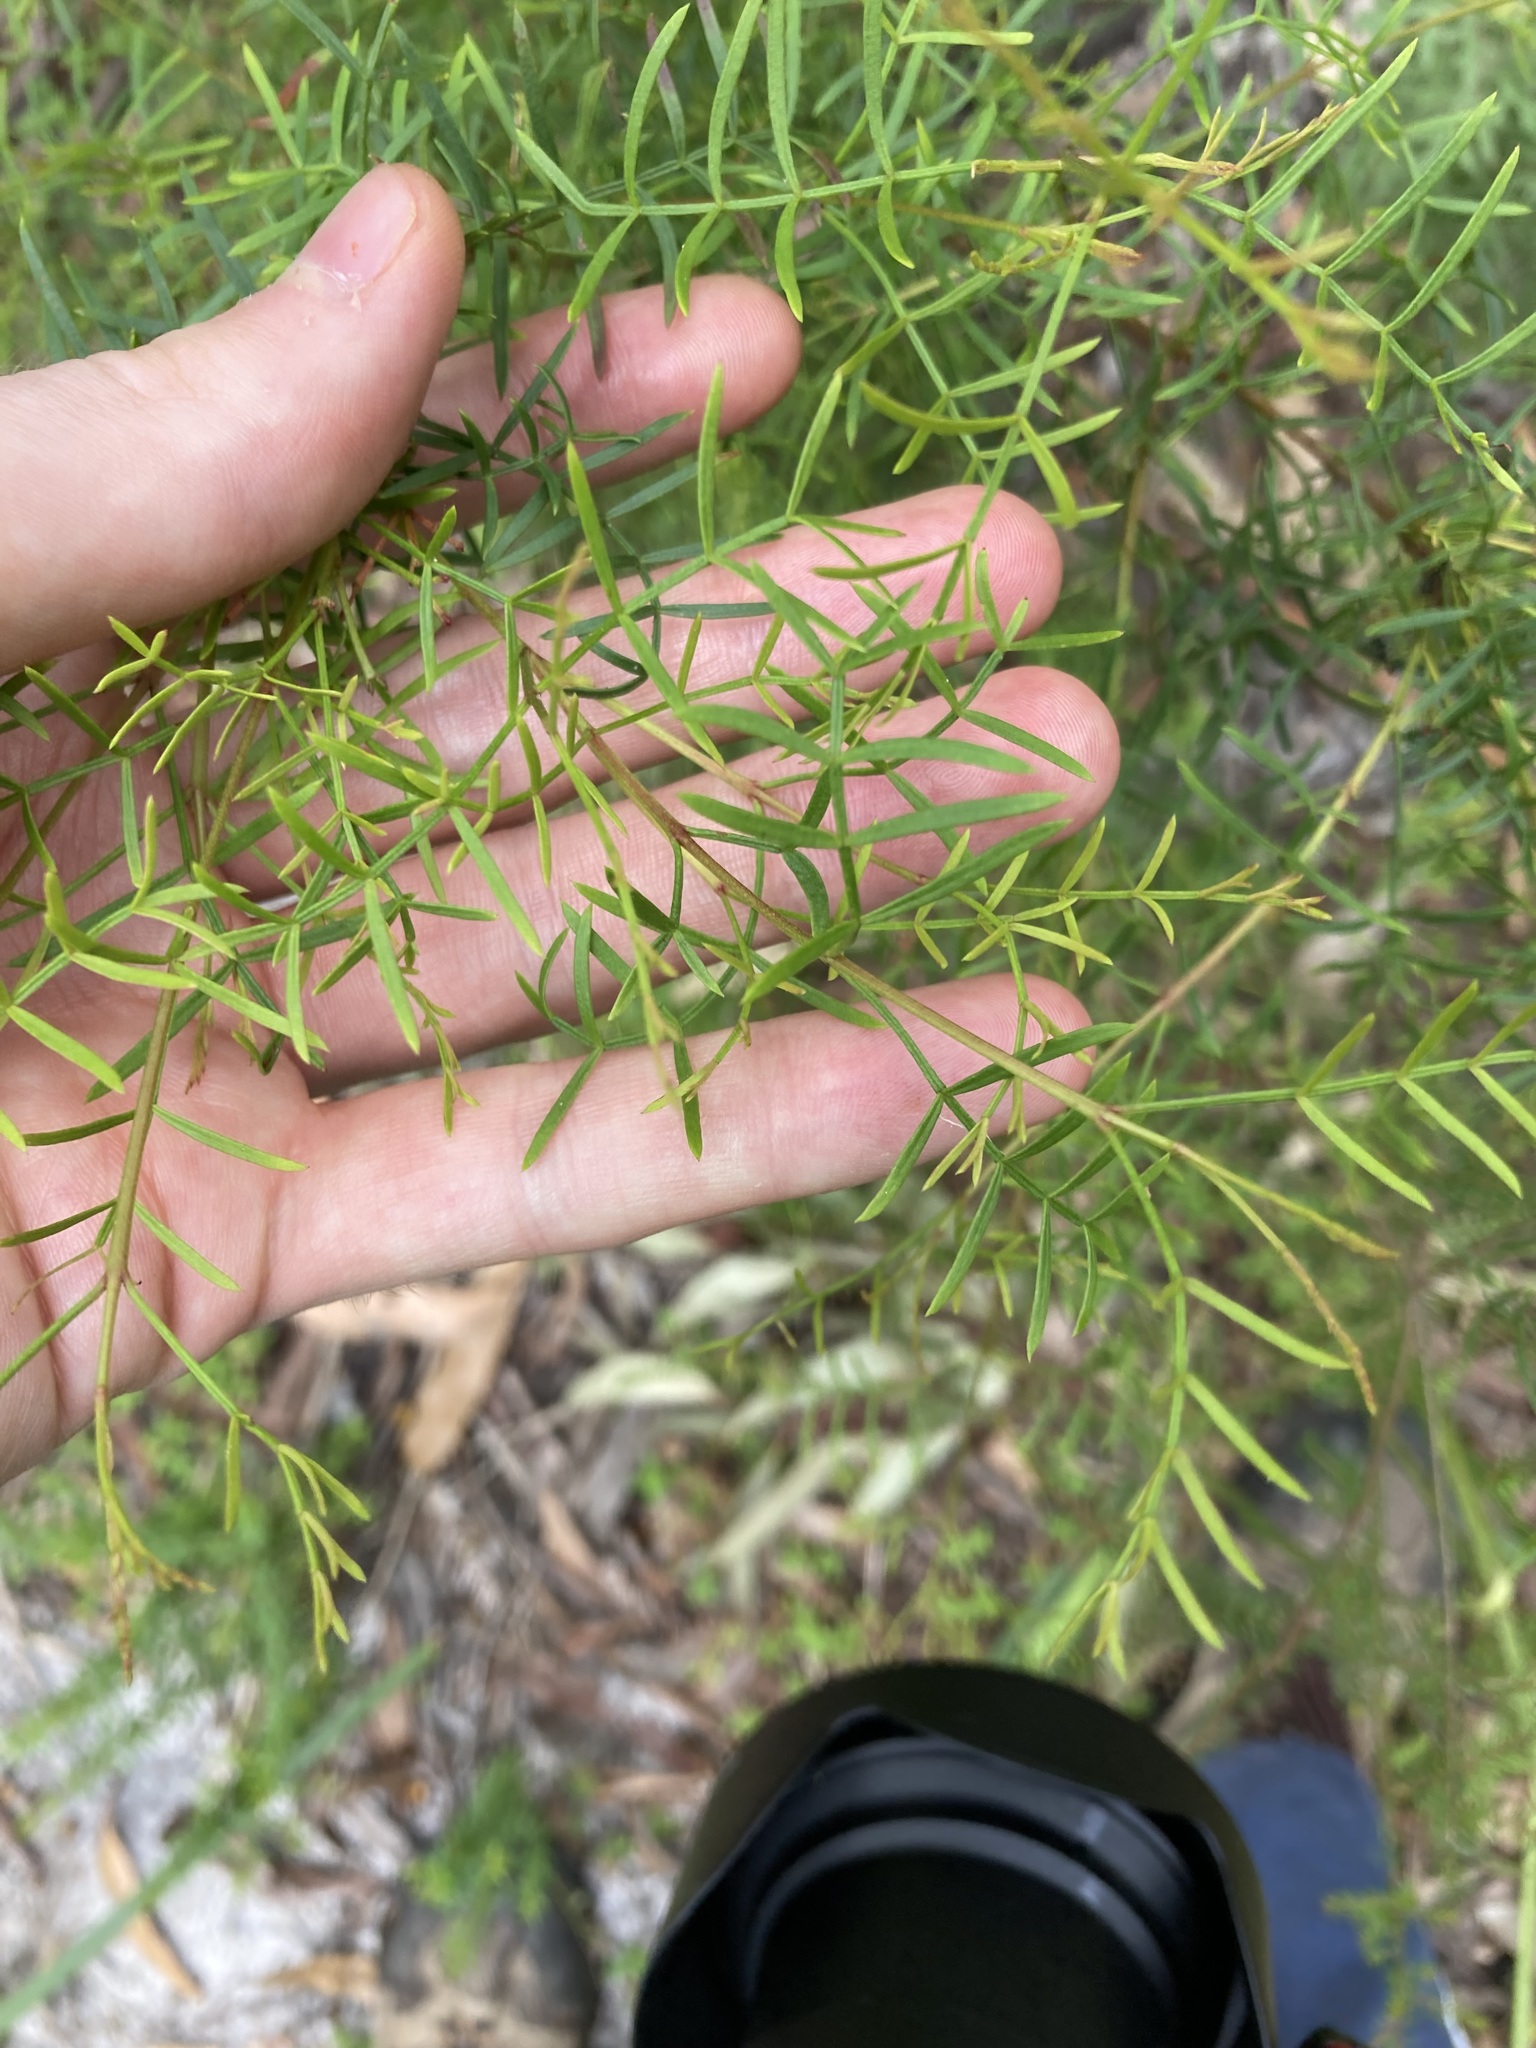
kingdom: Plantae
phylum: Tracheophyta
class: Magnoliopsida
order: Sapindales
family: Rutaceae
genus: Boronia
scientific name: Boronia pinnata
